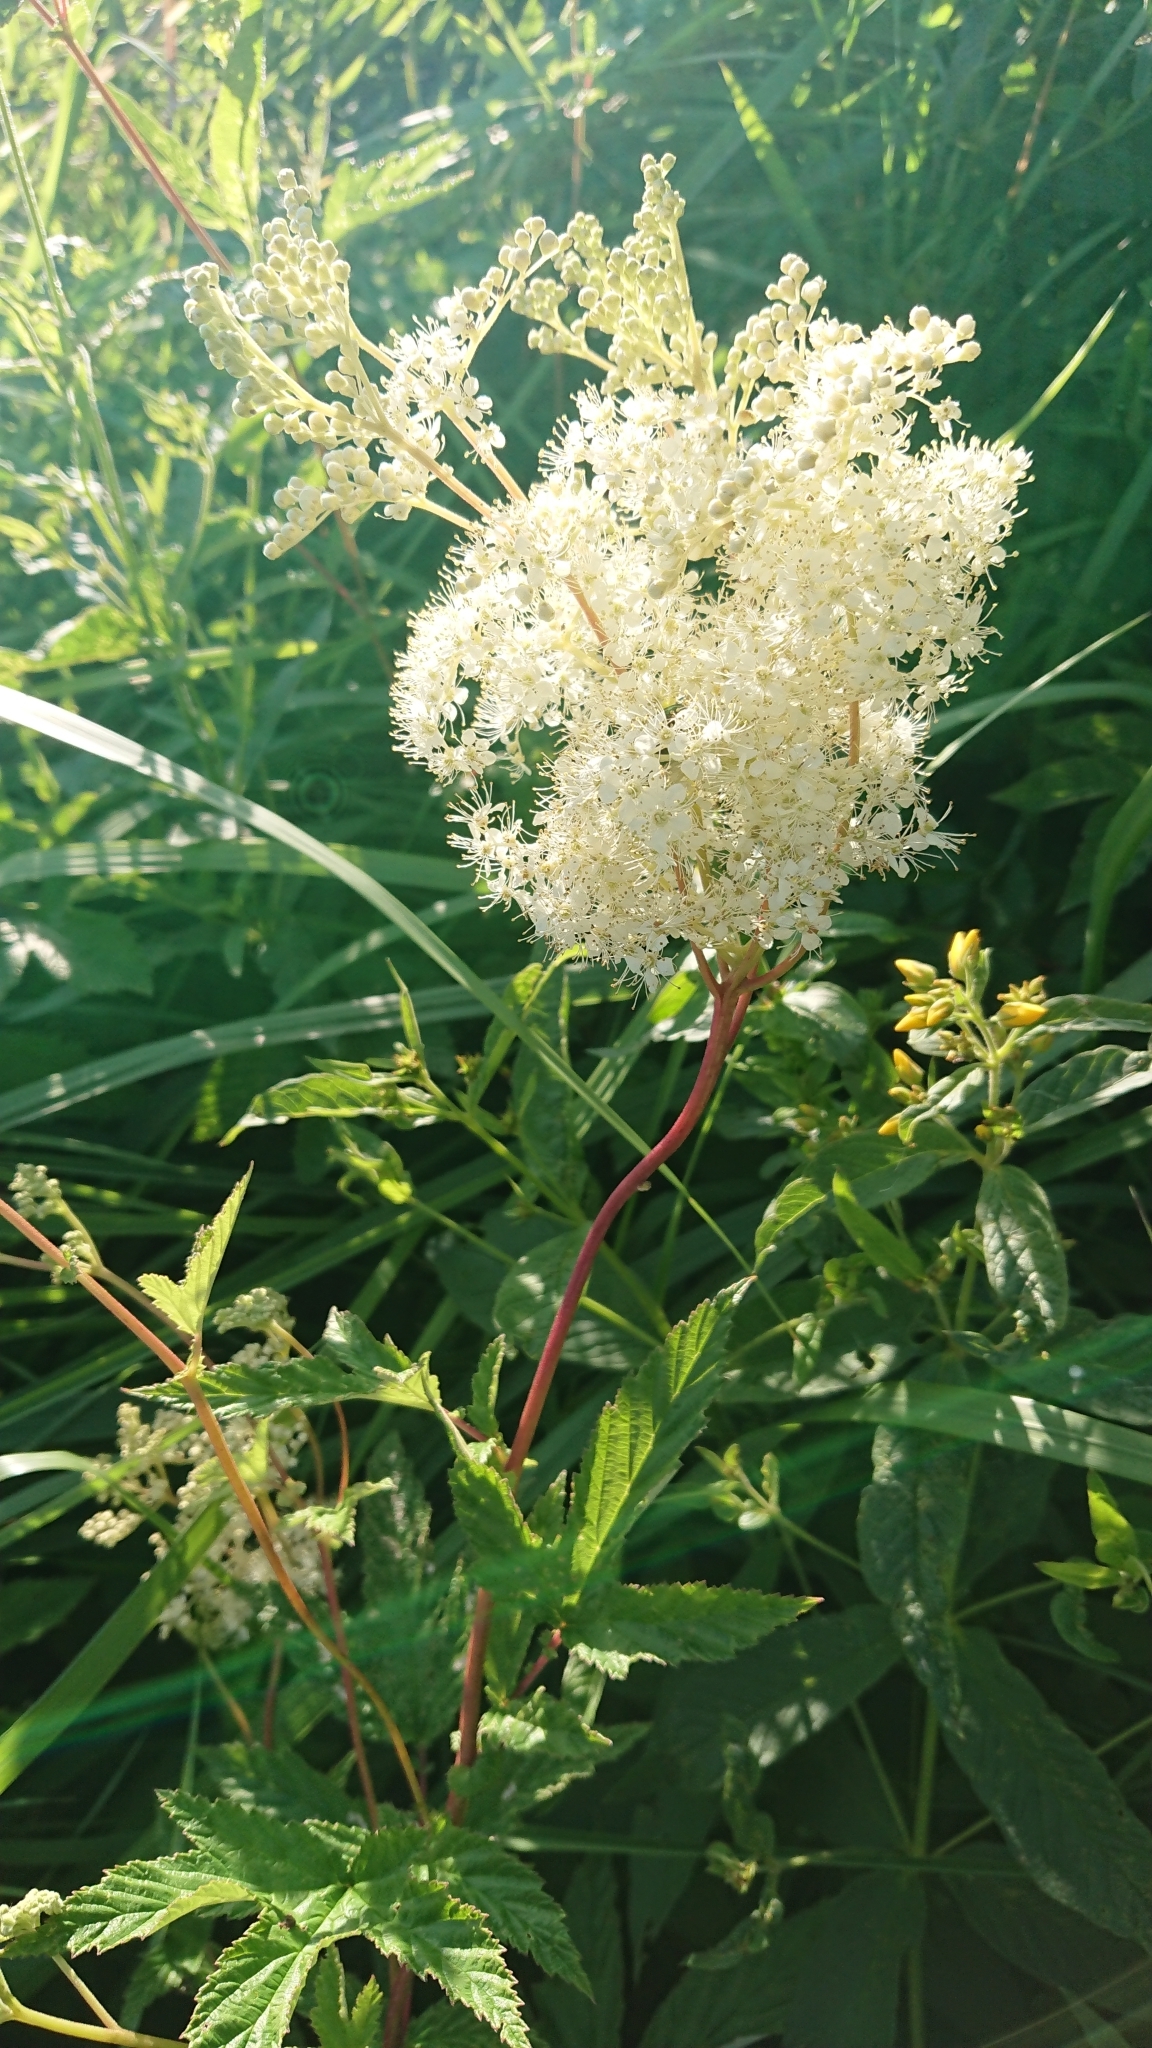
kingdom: Plantae
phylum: Tracheophyta
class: Magnoliopsida
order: Rosales
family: Rosaceae
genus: Filipendula
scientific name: Filipendula ulmaria
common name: Meadowsweet
